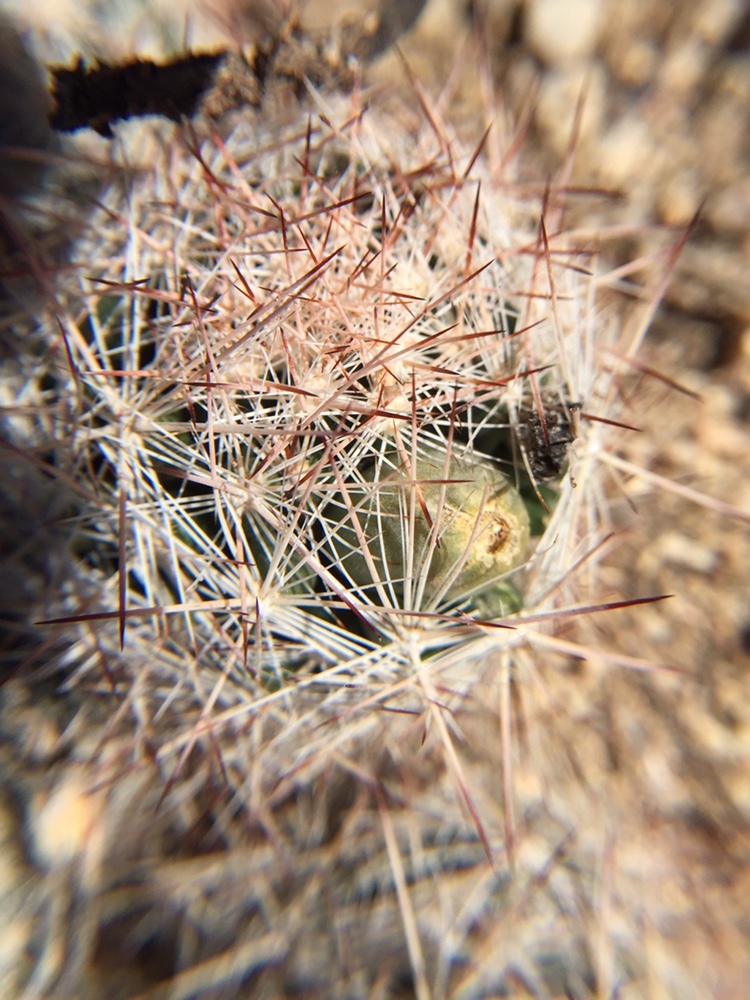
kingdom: Plantae
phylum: Tracheophyta
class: Magnoliopsida
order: Caryophyllales
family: Cactaceae
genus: Pelecyphora
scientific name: Pelecyphora vivipara
